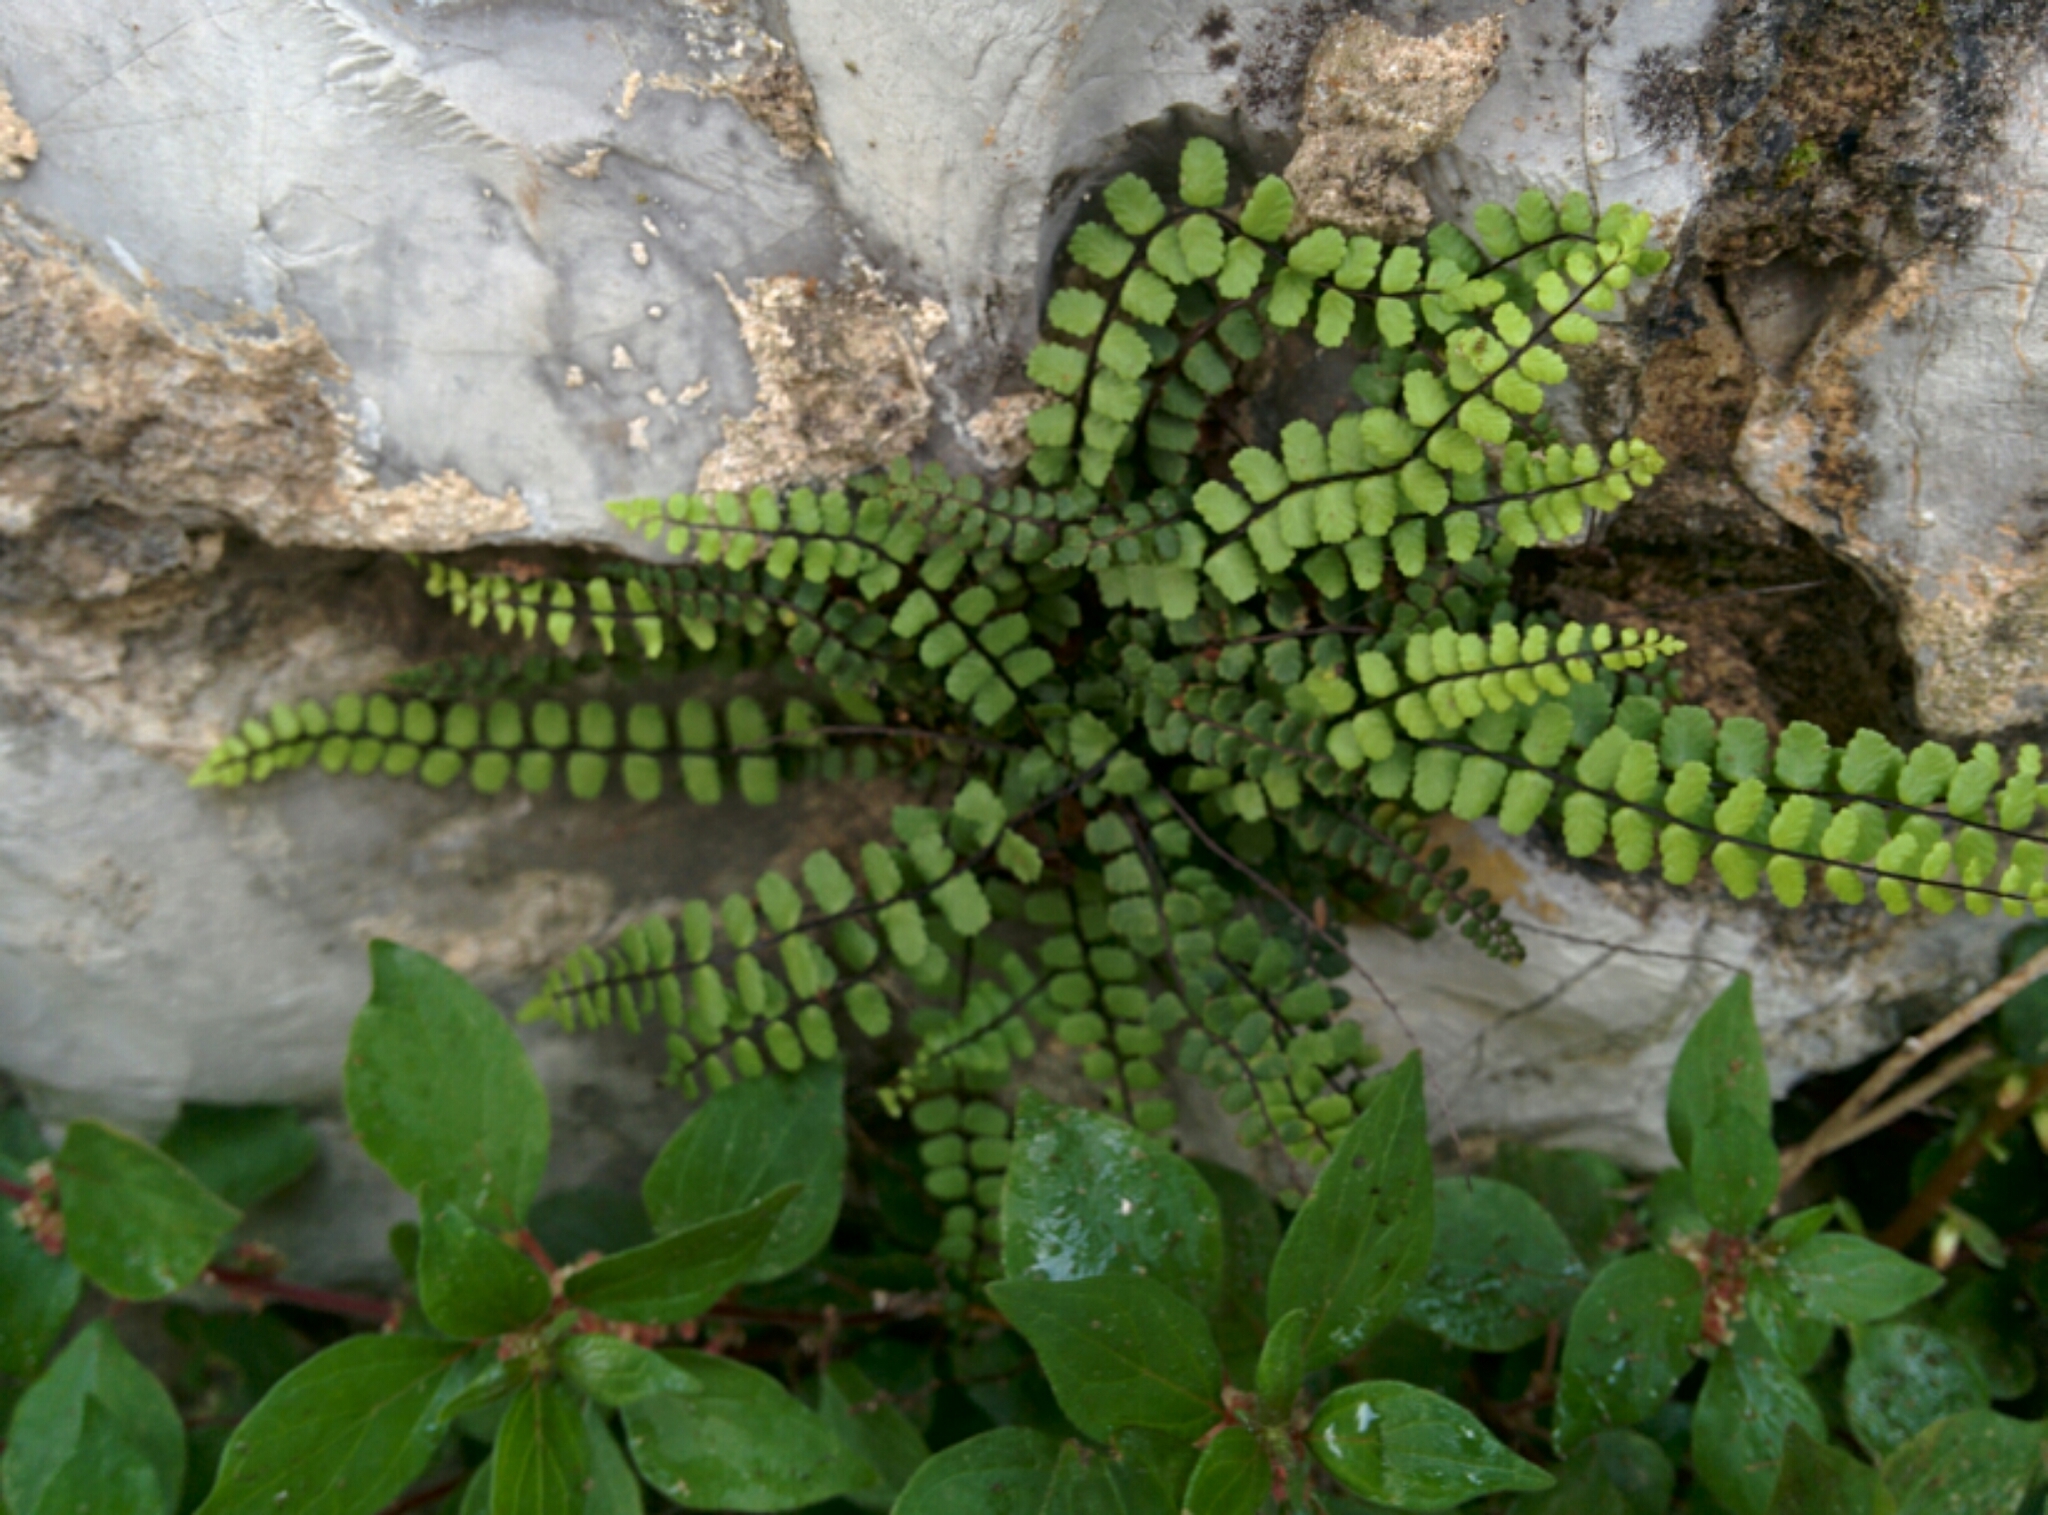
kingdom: Plantae
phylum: Tracheophyta
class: Polypodiopsida
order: Polypodiales
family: Aspleniaceae
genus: Asplenium
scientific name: Asplenium trichomanes
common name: Maidenhair spleenwort
